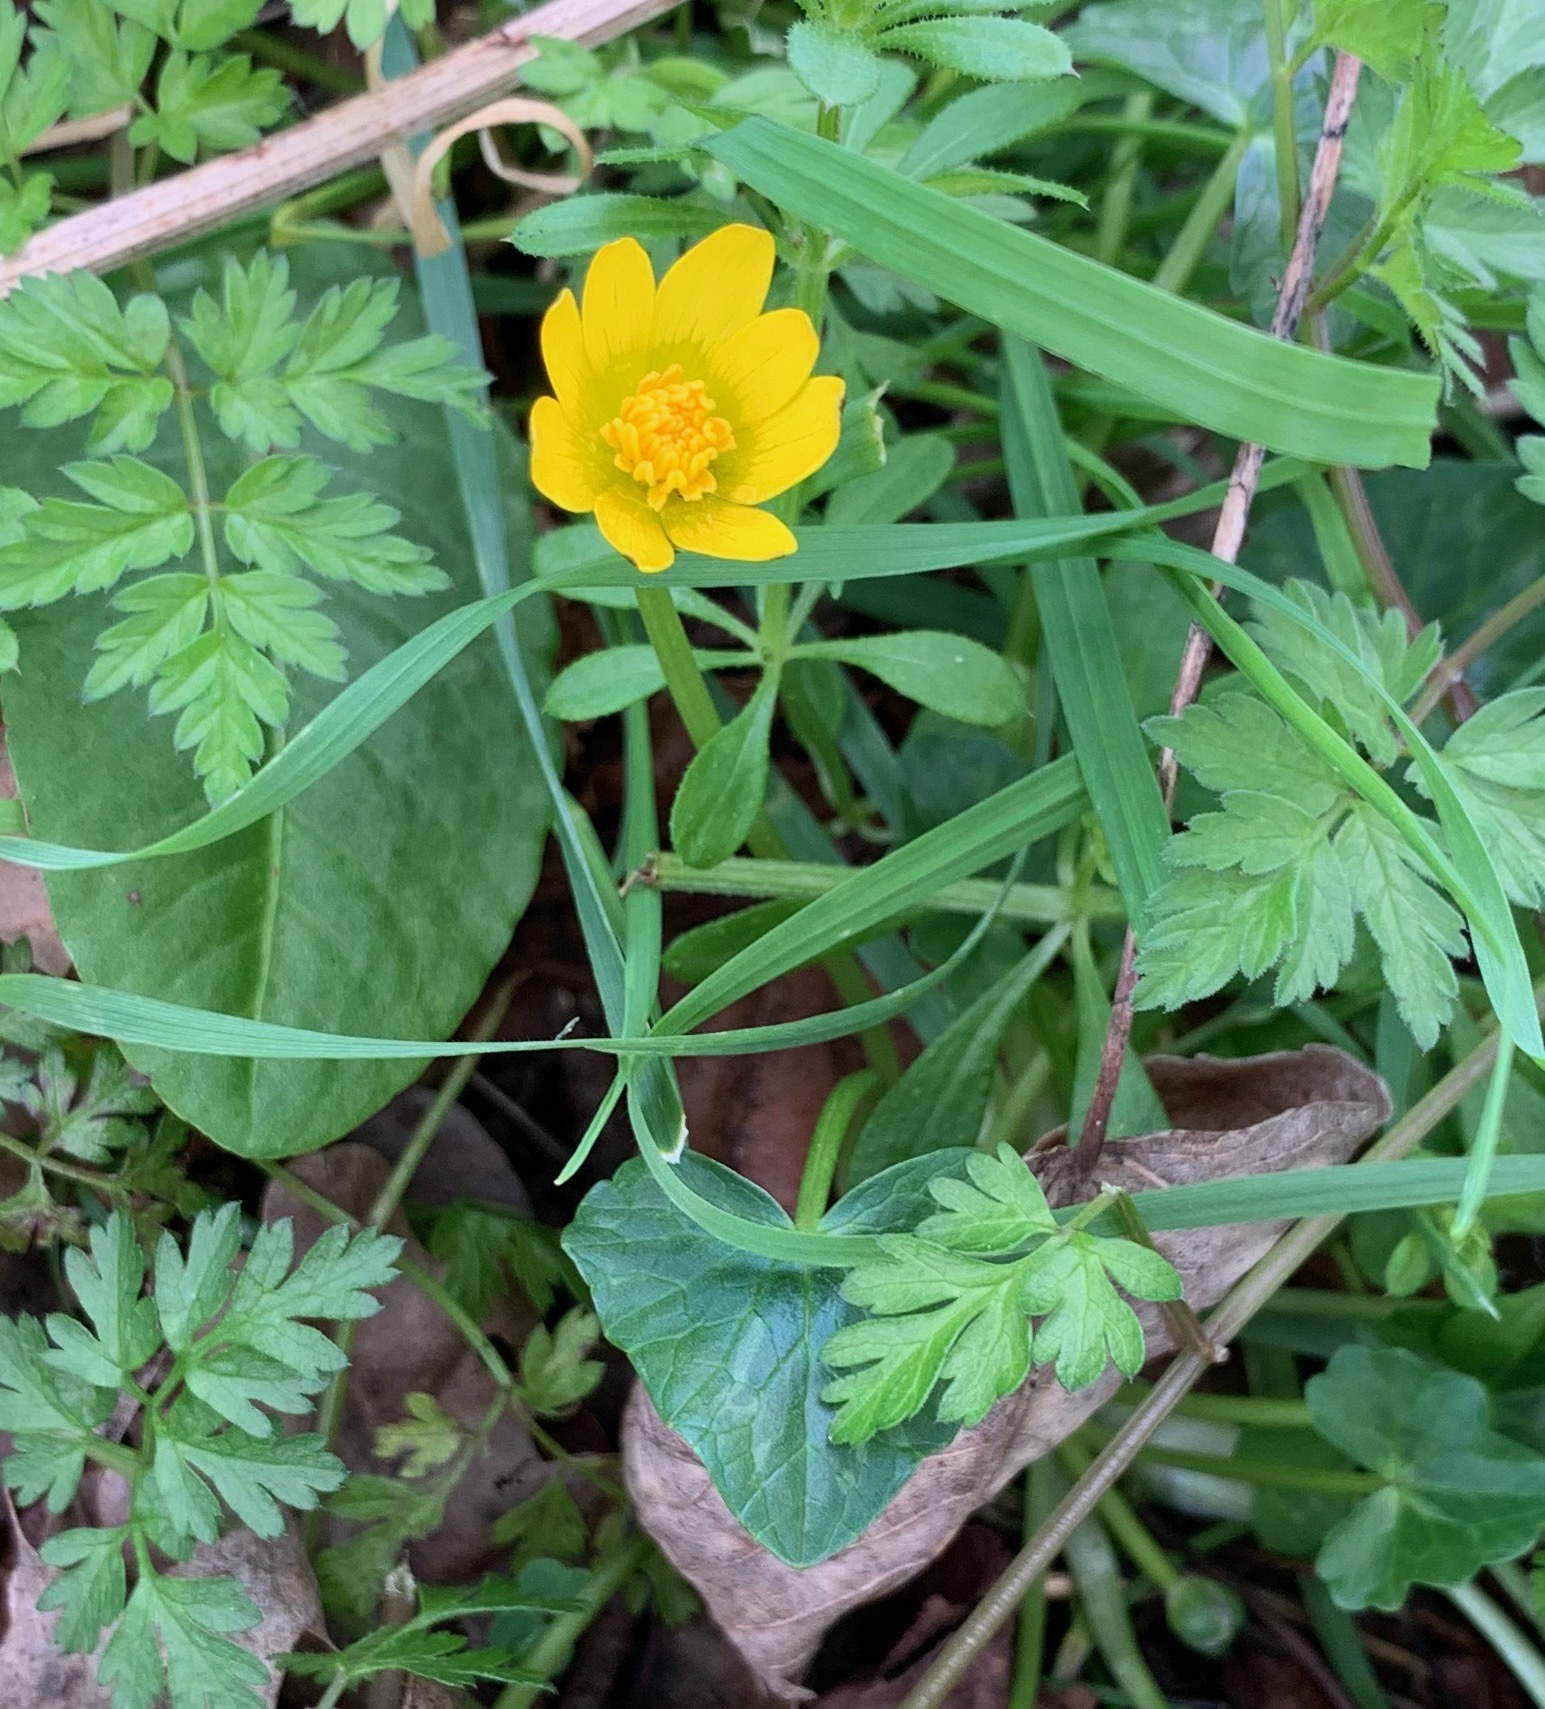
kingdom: Plantae
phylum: Tracheophyta
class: Magnoliopsida
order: Ranunculales
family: Ranunculaceae
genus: Ficaria
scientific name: Ficaria verna
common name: Lesser celandine
